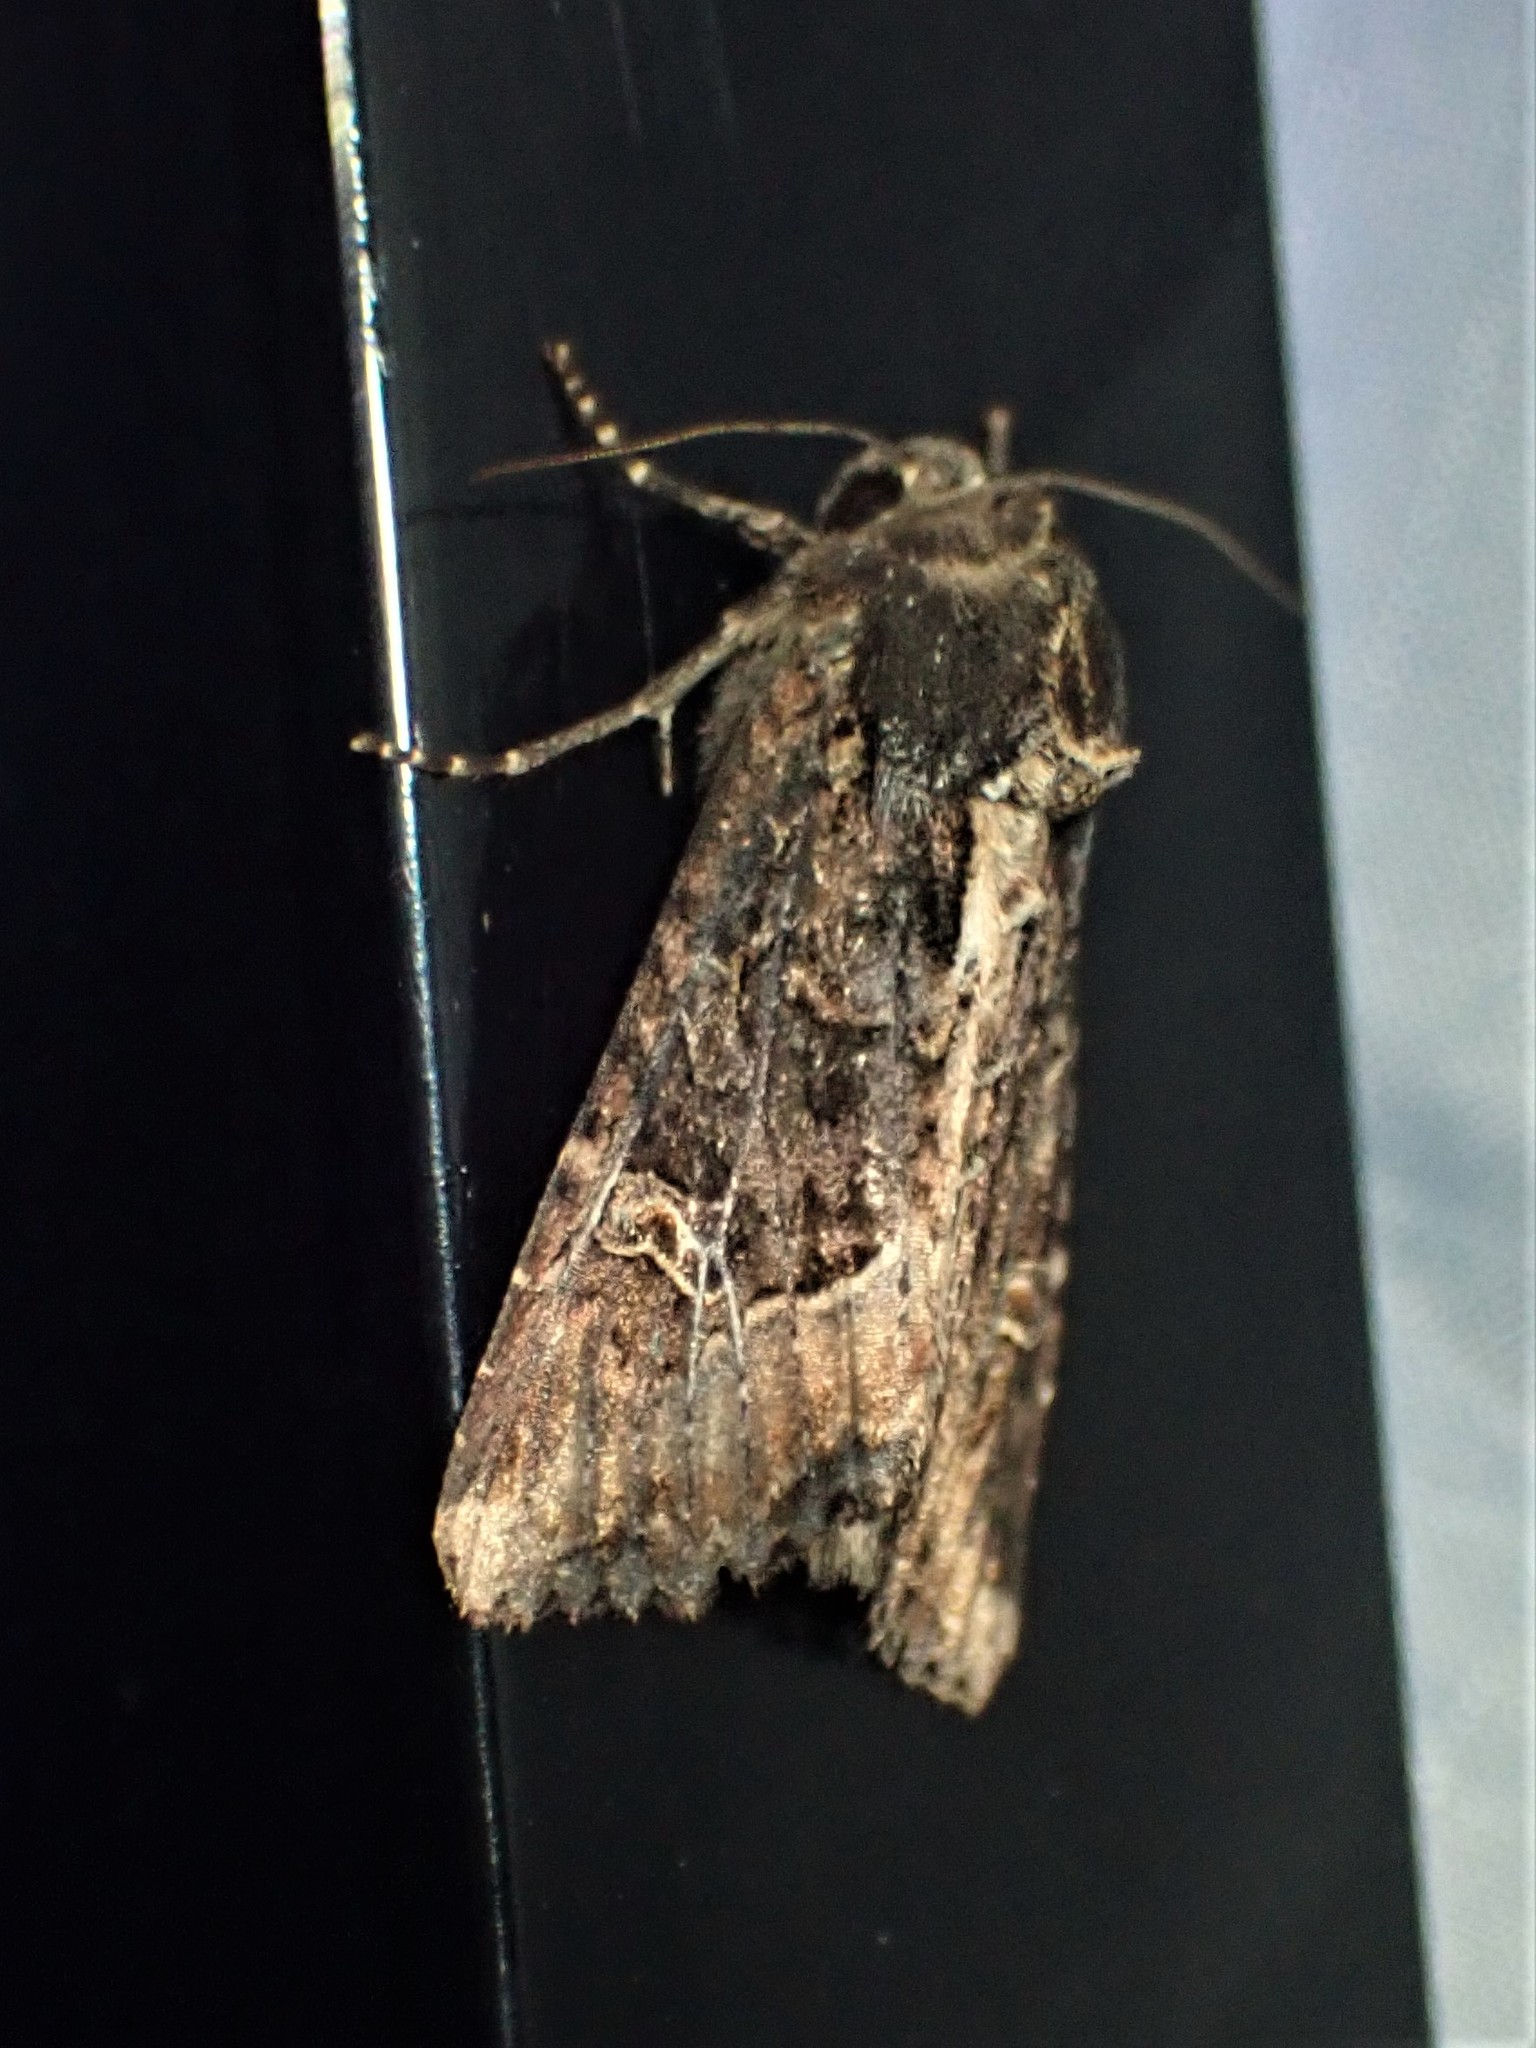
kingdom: Animalia
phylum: Arthropoda
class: Insecta
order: Lepidoptera
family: Noctuidae
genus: Helotropha
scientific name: Helotropha reniformis
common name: Kidney-spotted rustic moth
